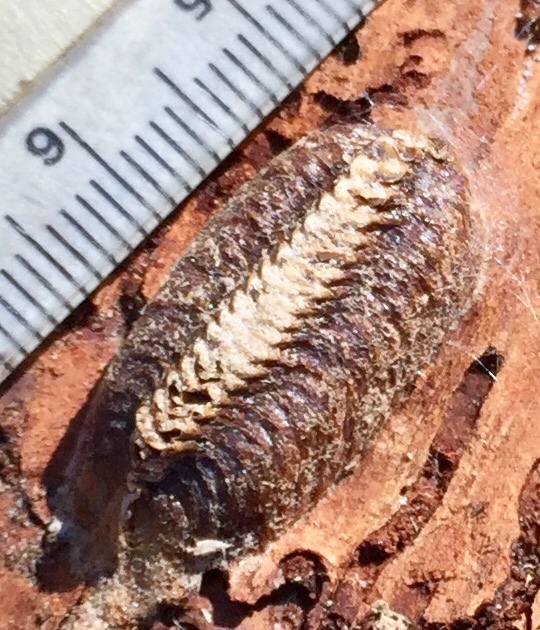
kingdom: Animalia
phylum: Arthropoda
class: Insecta
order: Mantodea
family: Mantidae
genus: Stagmomantis
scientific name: Stagmomantis carolina
